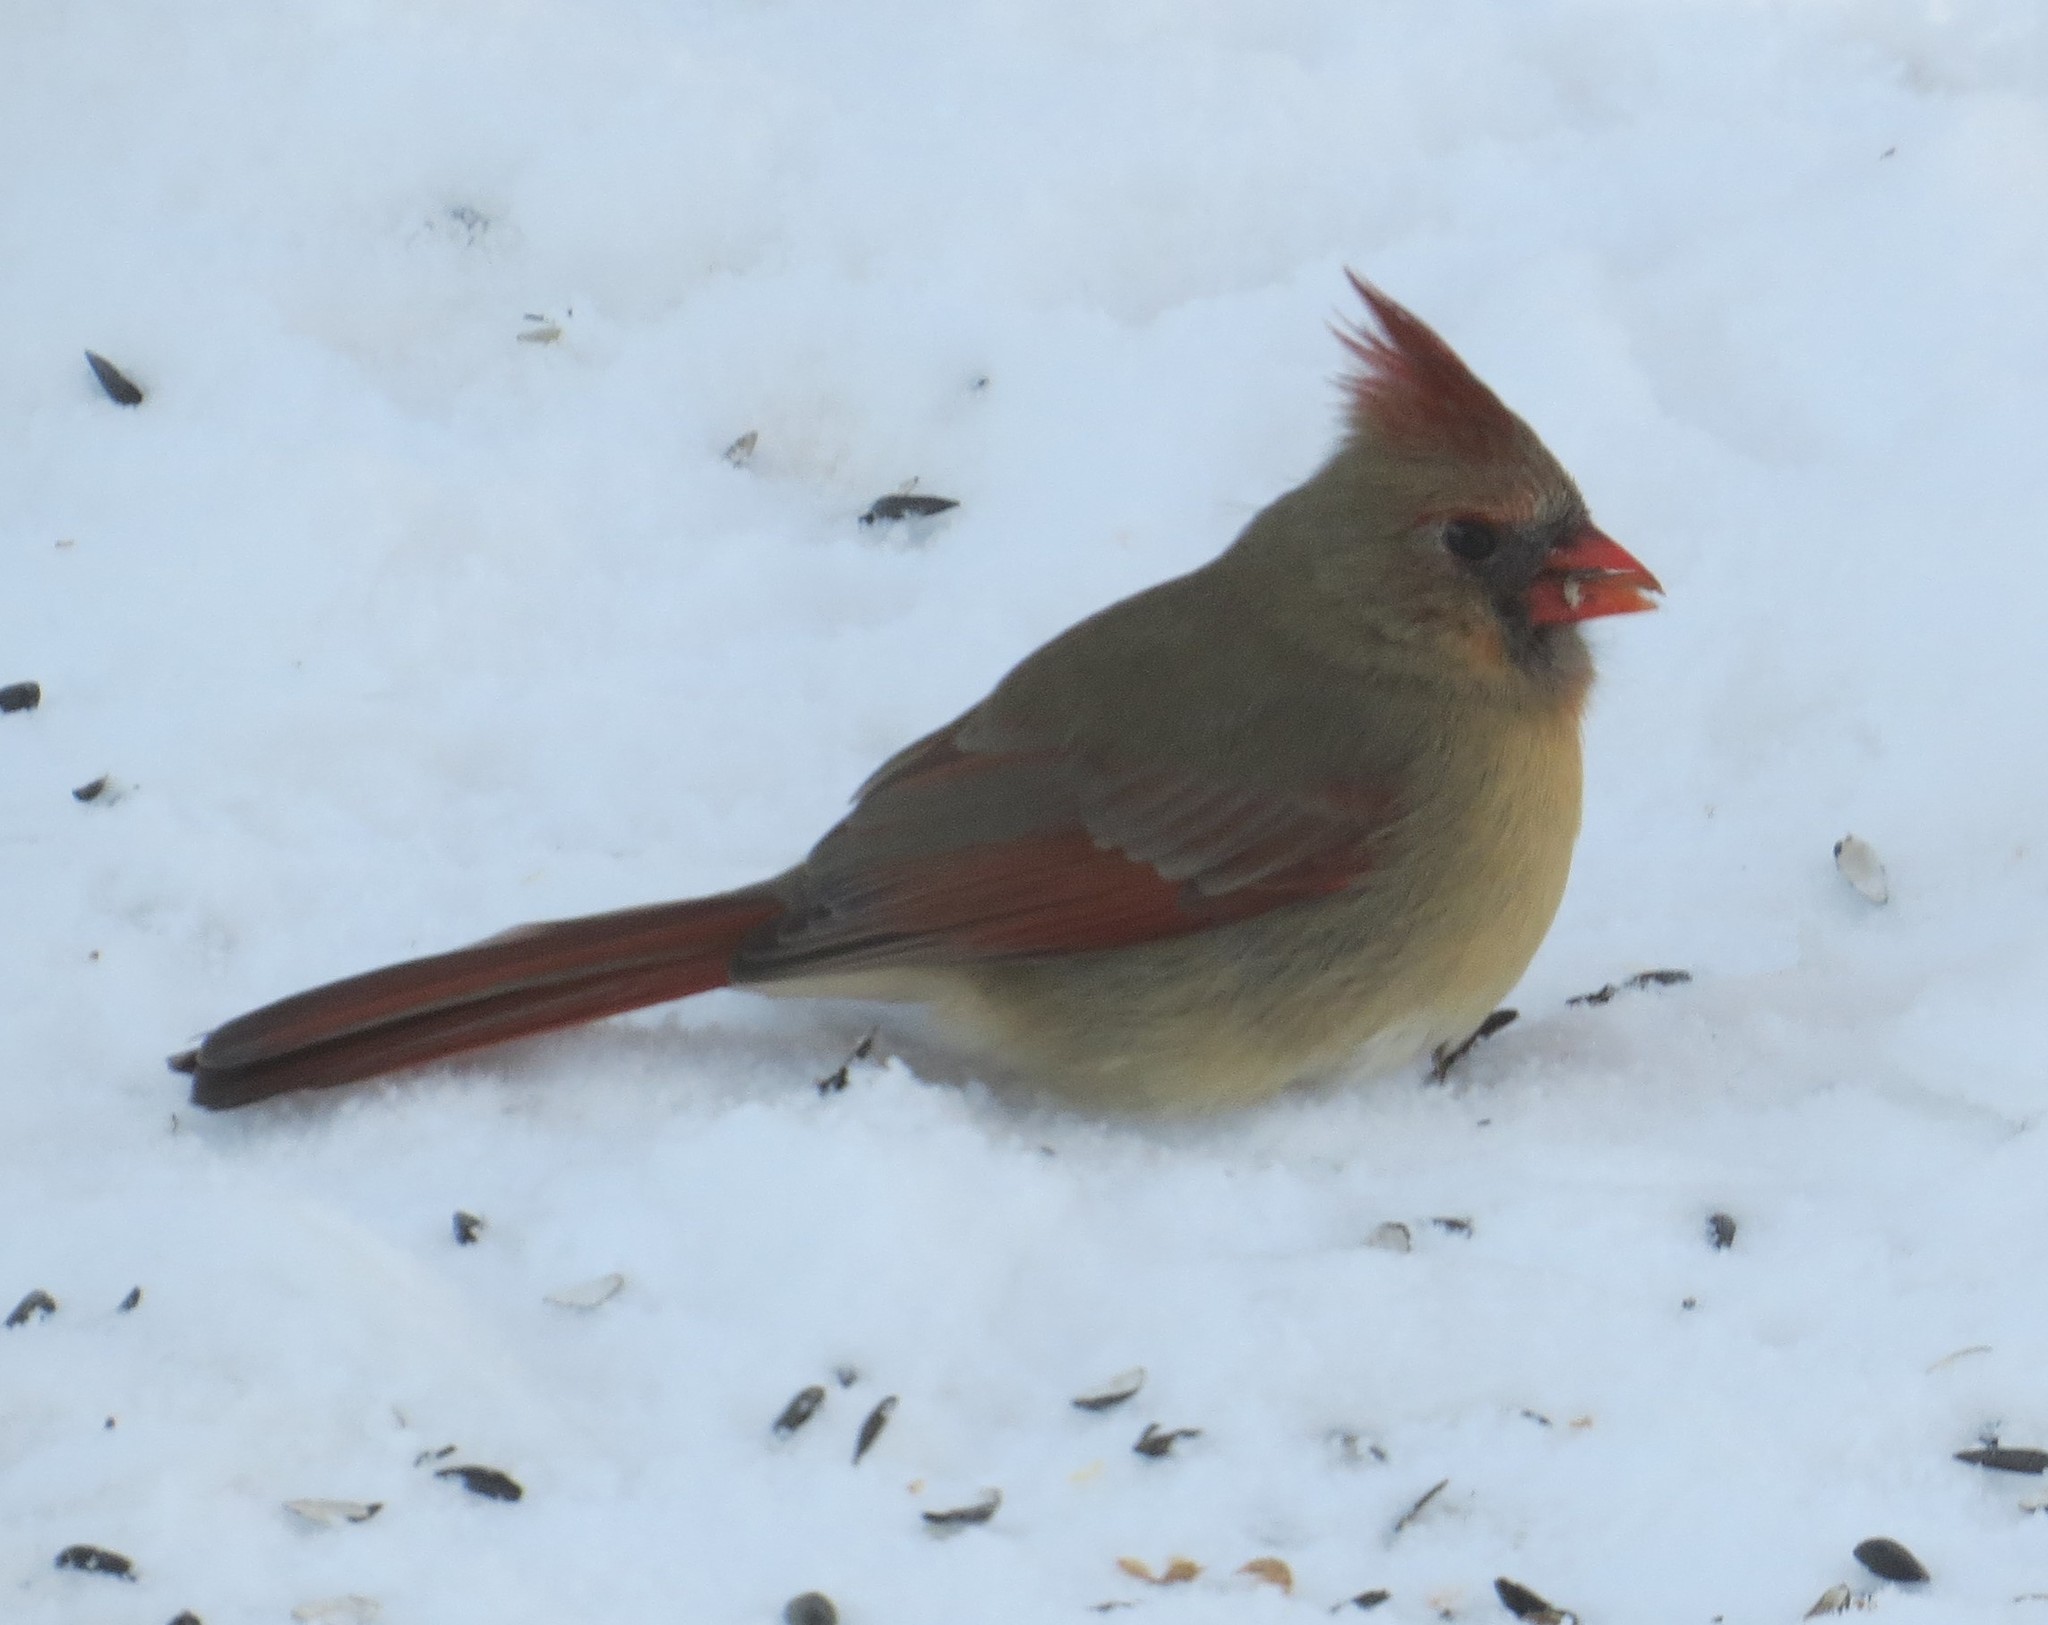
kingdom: Animalia
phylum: Chordata
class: Aves
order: Passeriformes
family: Cardinalidae
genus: Cardinalis
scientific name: Cardinalis cardinalis
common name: Northern cardinal
